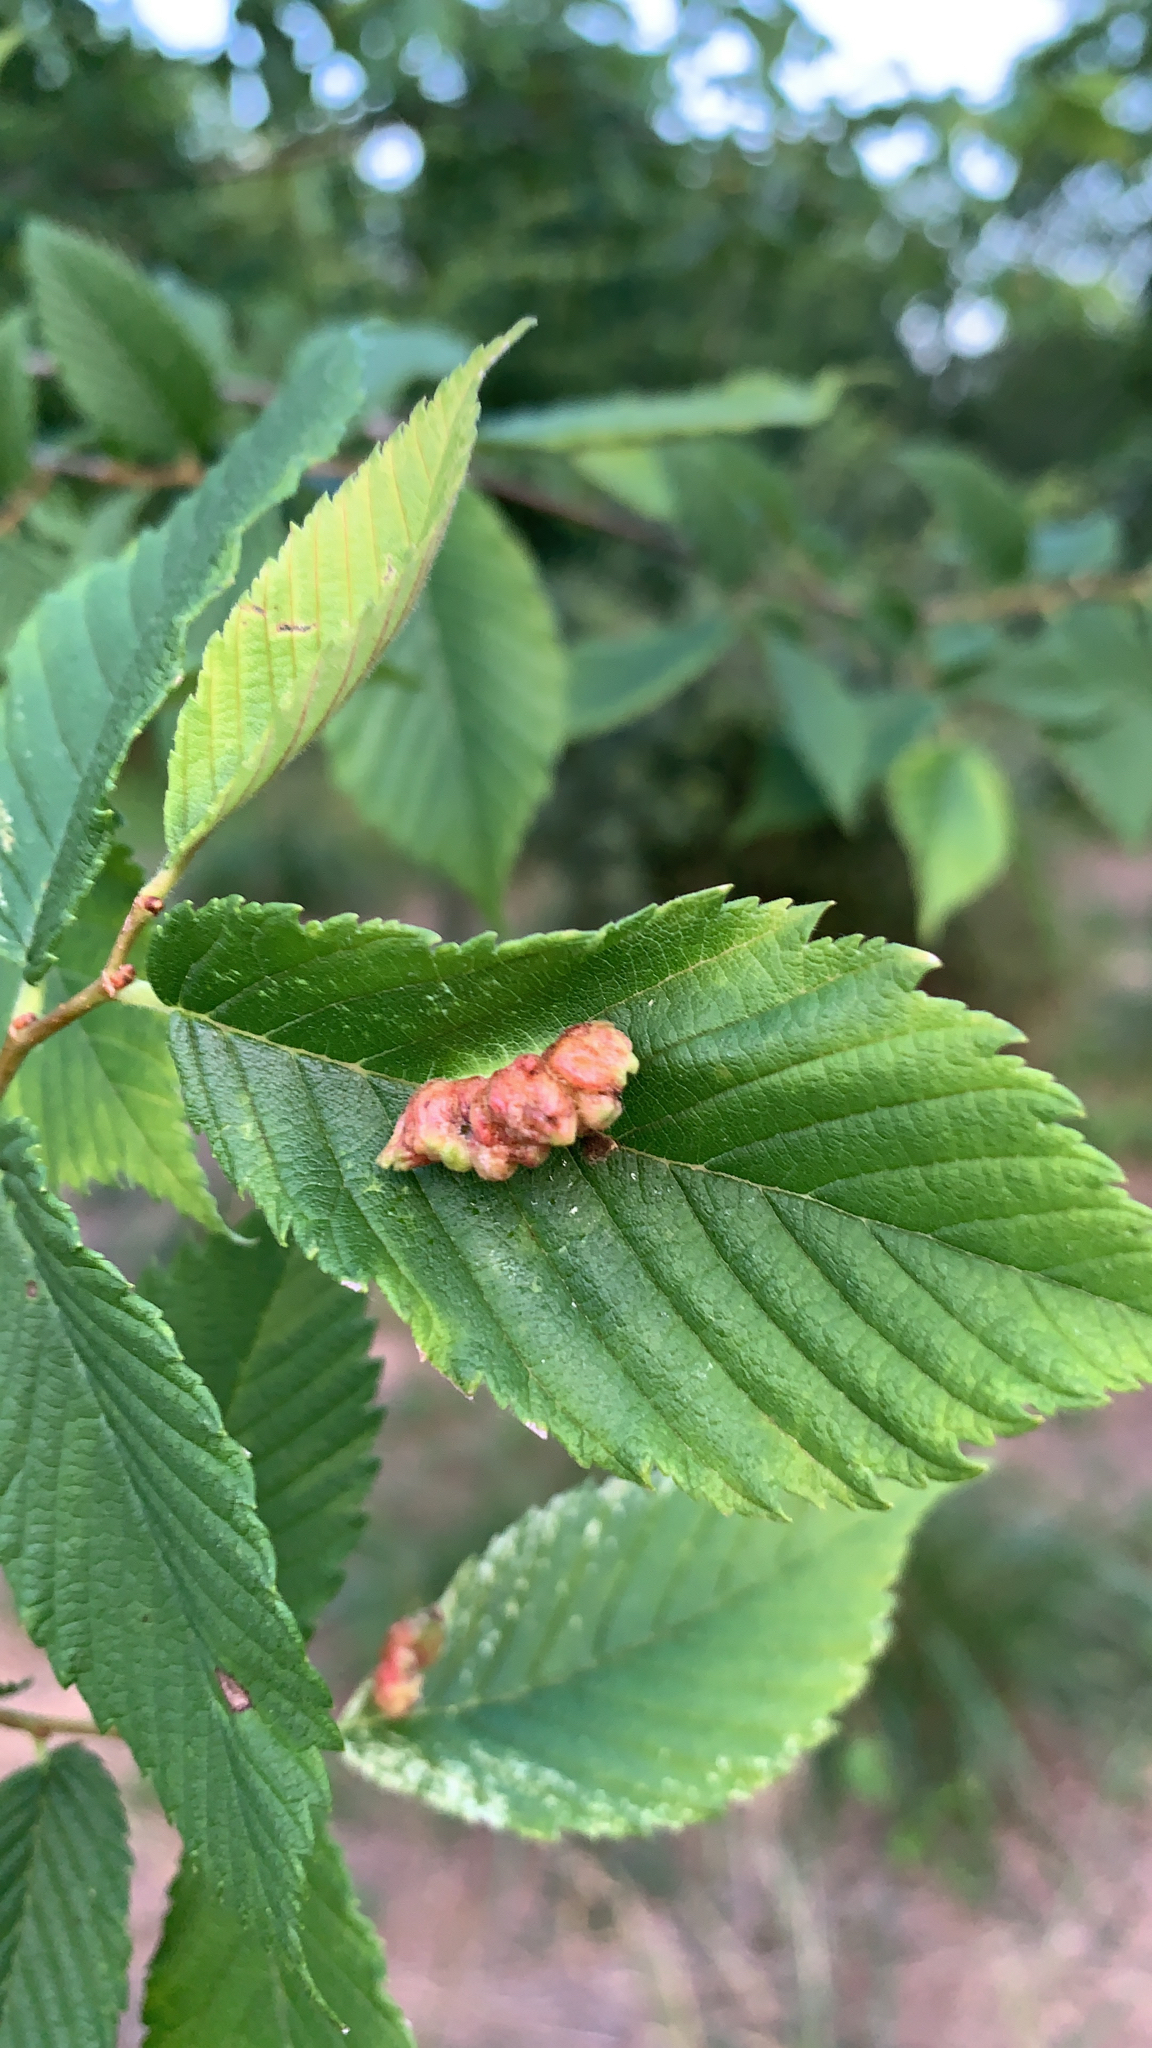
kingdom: Animalia
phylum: Arthropoda
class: Insecta
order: Hemiptera
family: Aphididae
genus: Colopha
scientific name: Colopha ulmicola
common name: Elm cockscombgall aphid
